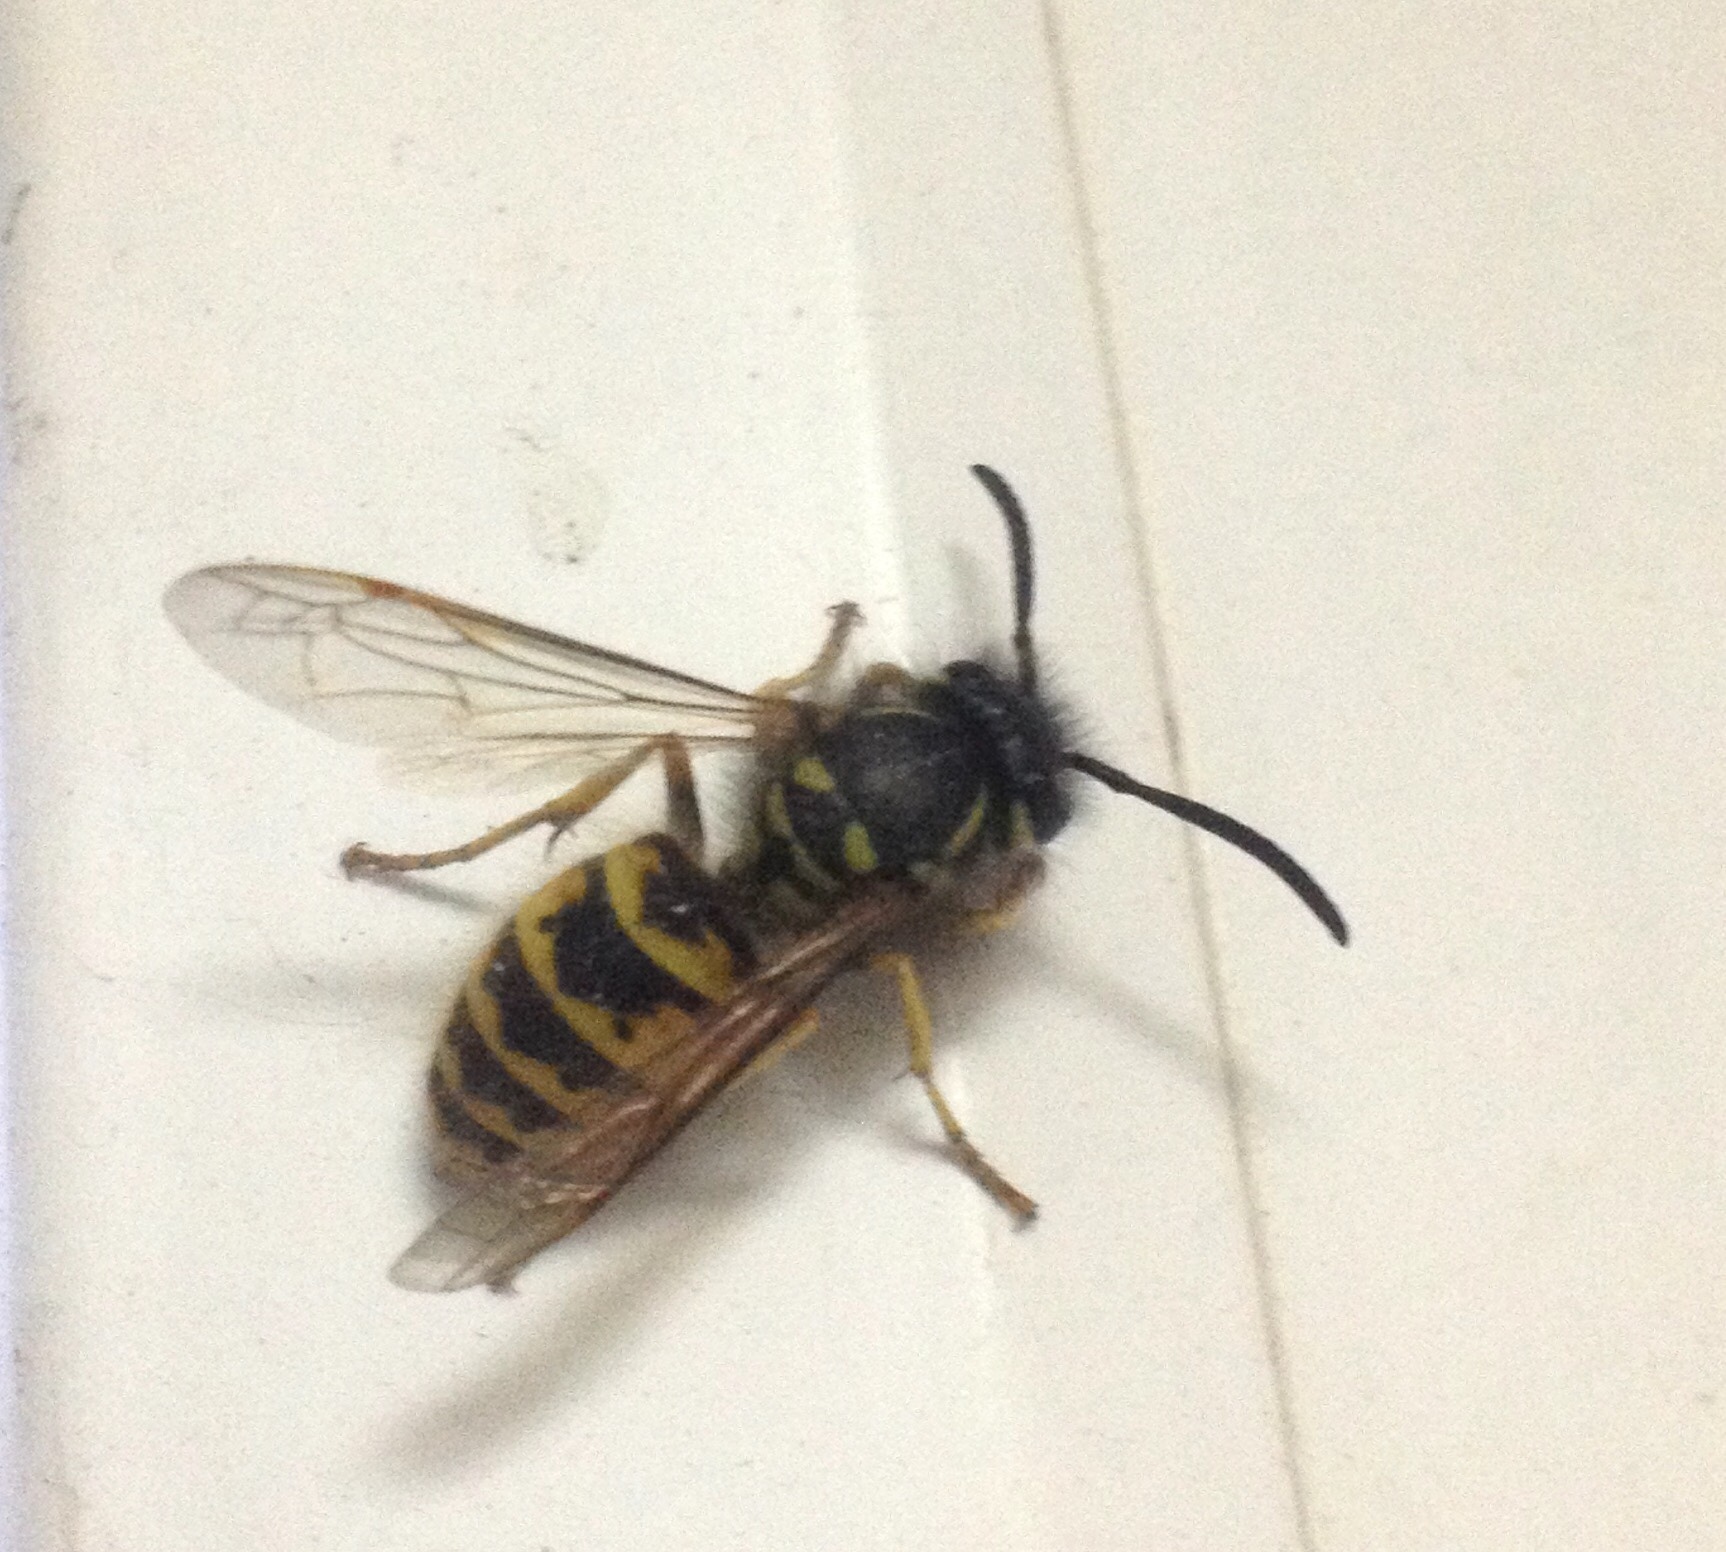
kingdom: Animalia
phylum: Arthropoda
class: Insecta
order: Hymenoptera
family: Vespidae
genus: Vespula
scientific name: Vespula vulgaris
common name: Common wasp
